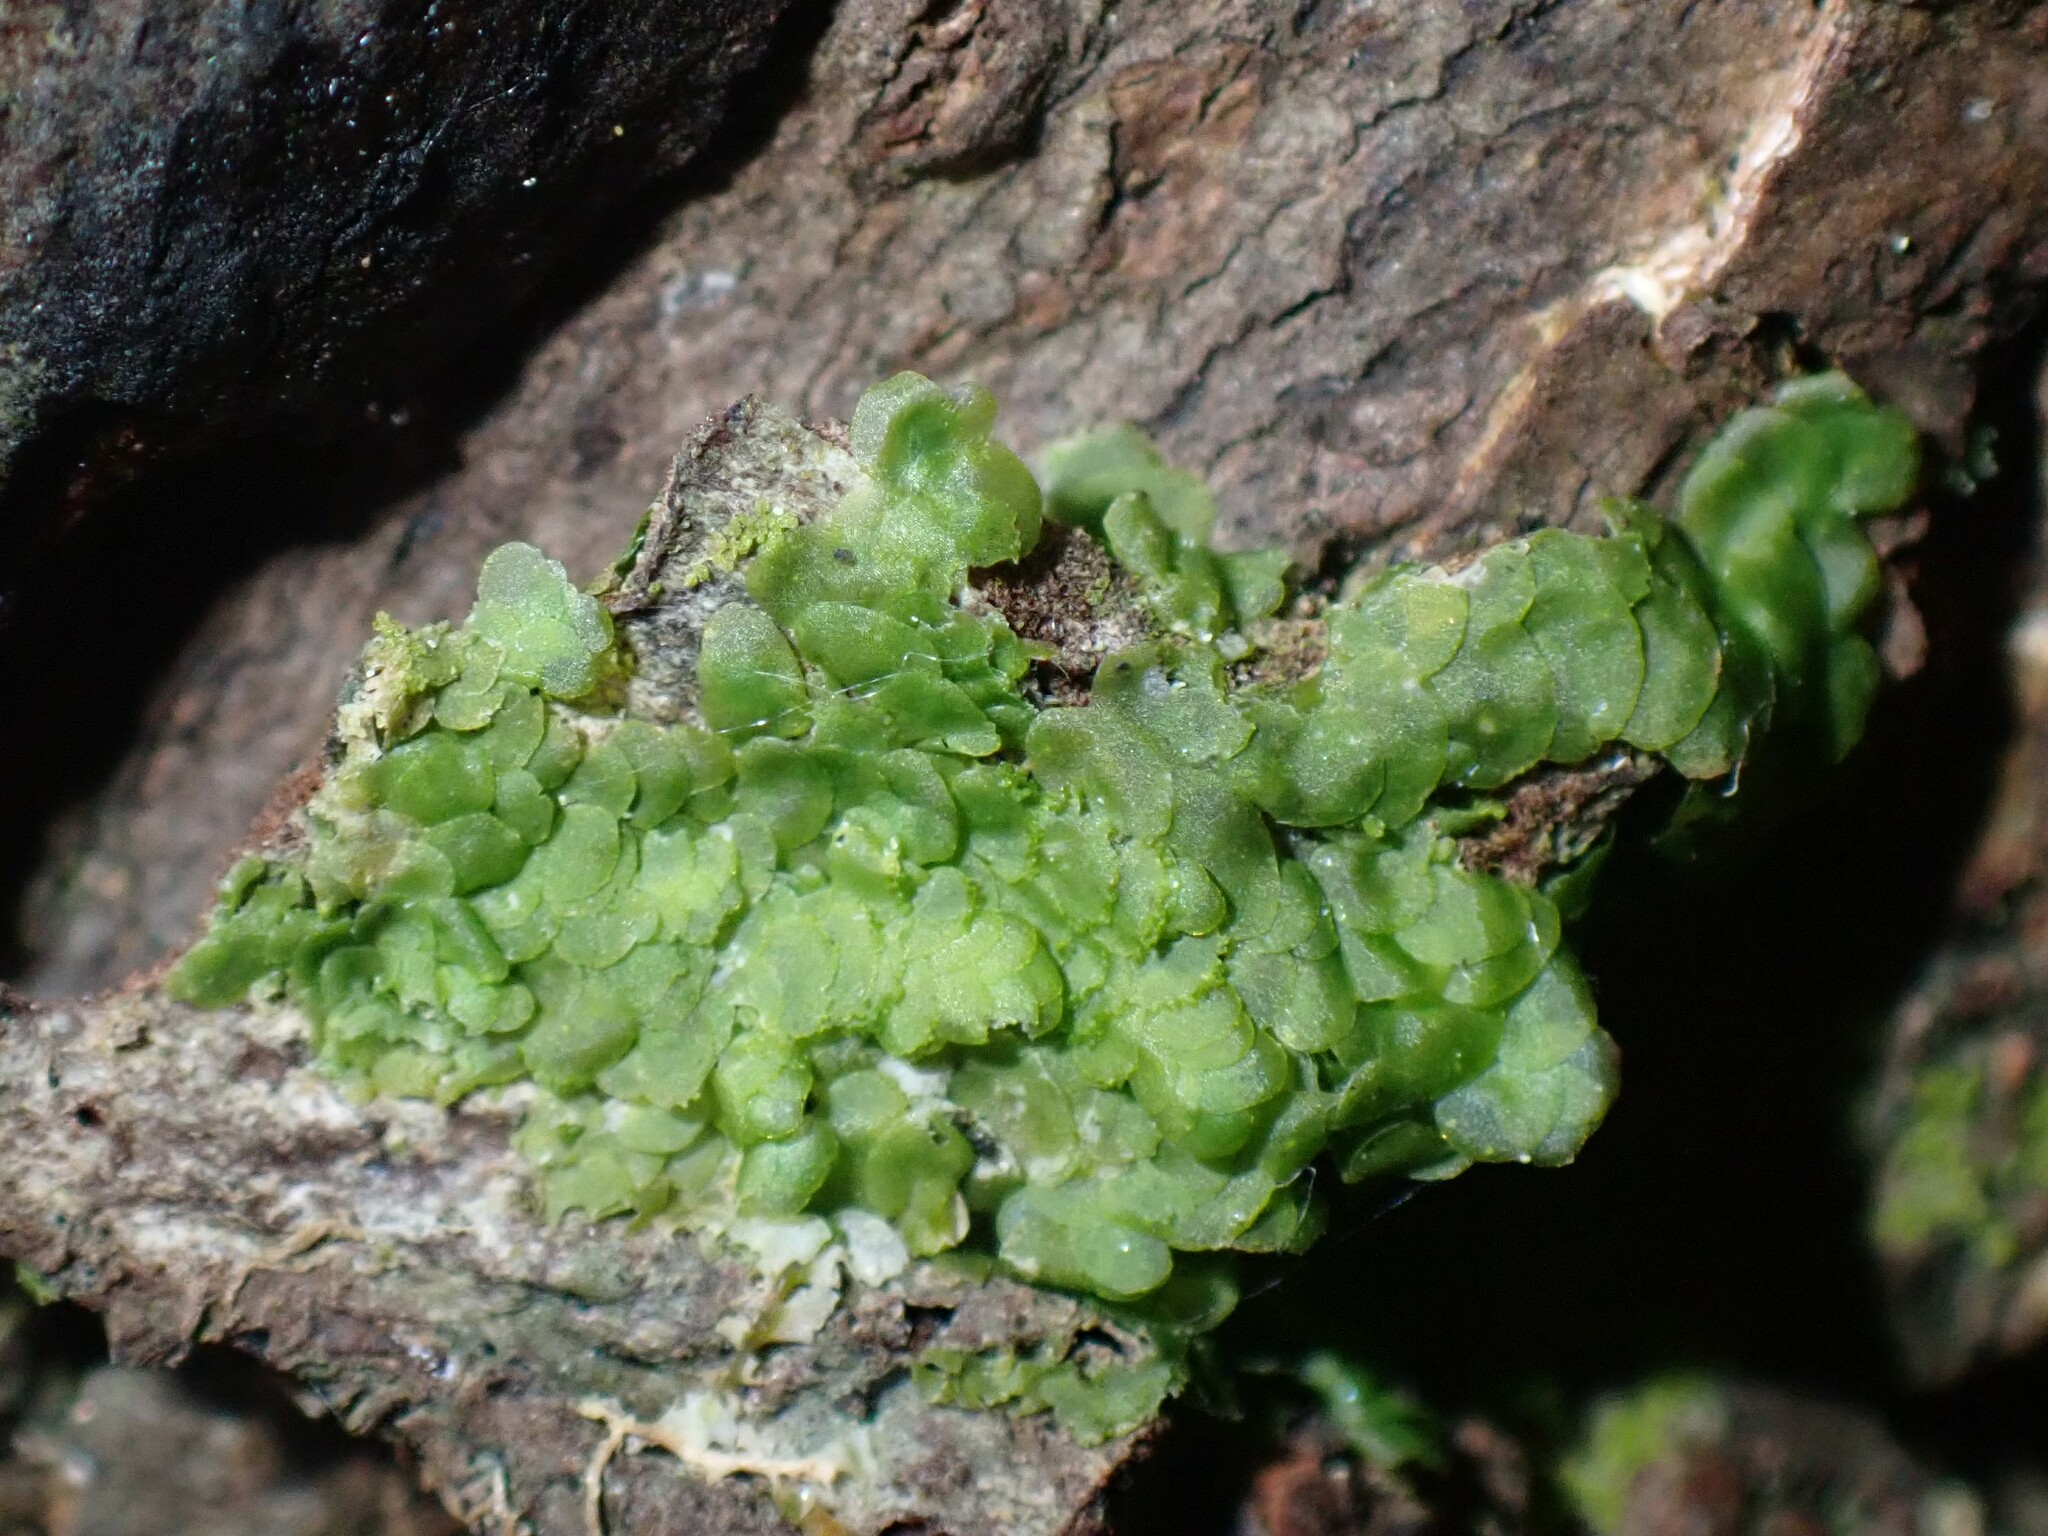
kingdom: Plantae
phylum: Marchantiophyta
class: Jungermanniopsida
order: Porellales
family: Radulaceae
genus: Radula
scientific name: Radula complanata
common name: Flat-leaved scalewort
